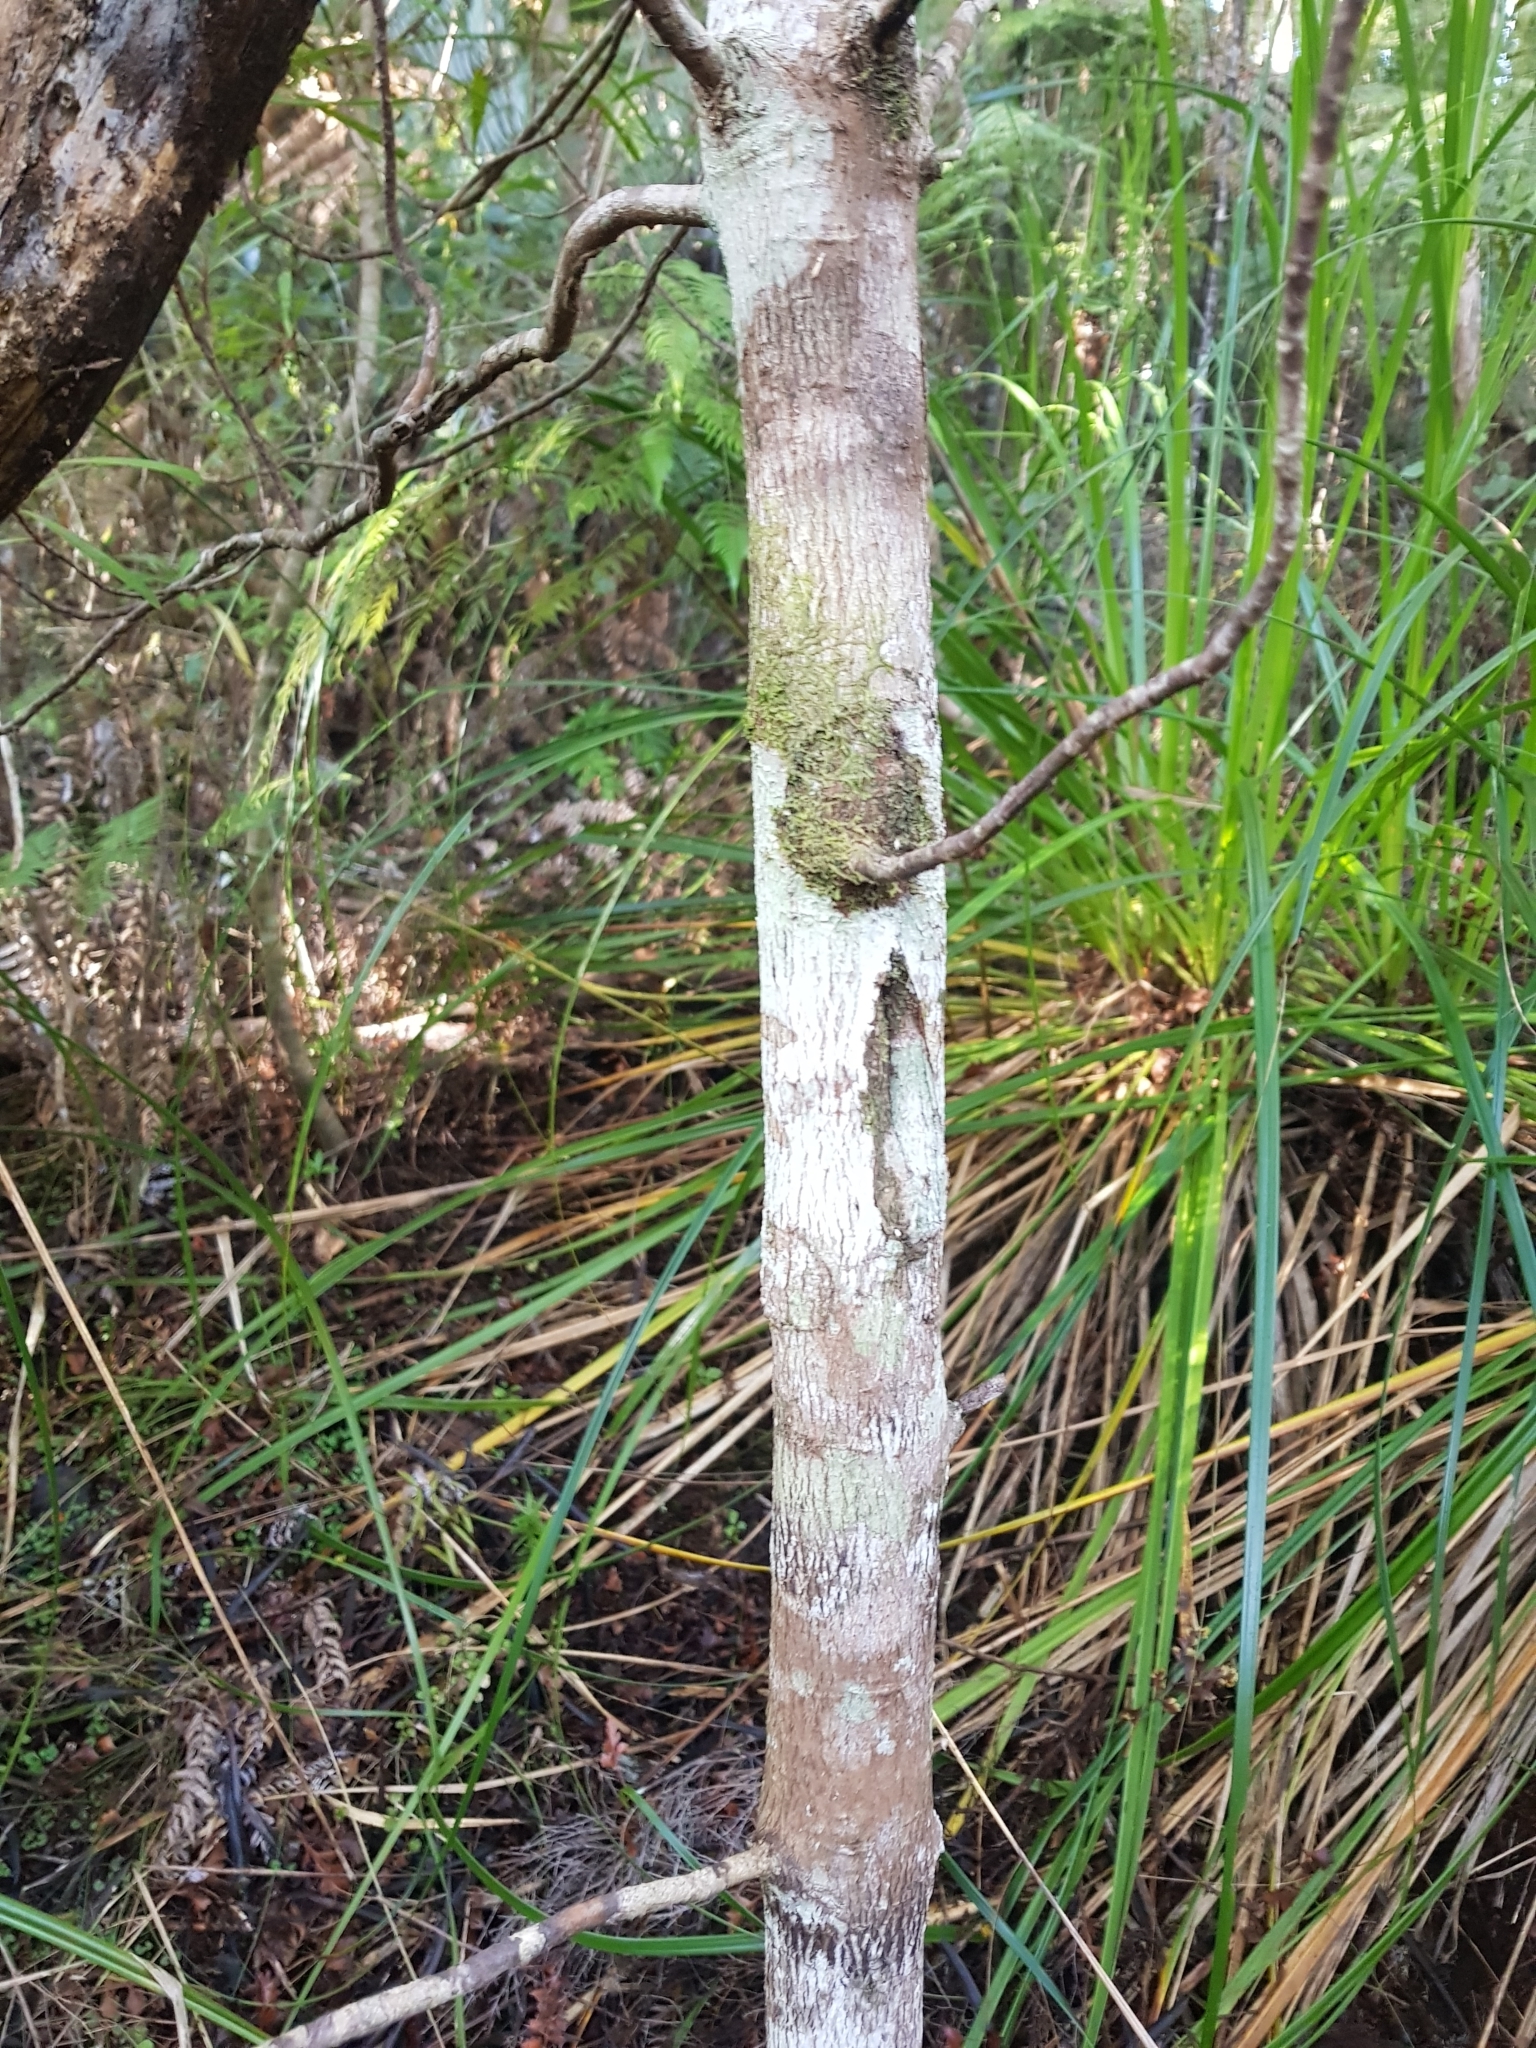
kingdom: Plantae
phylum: Tracheophyta
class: Magnoliopsida
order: Proteales
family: Proteaceae
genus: Toronia
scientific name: Toronia toru
